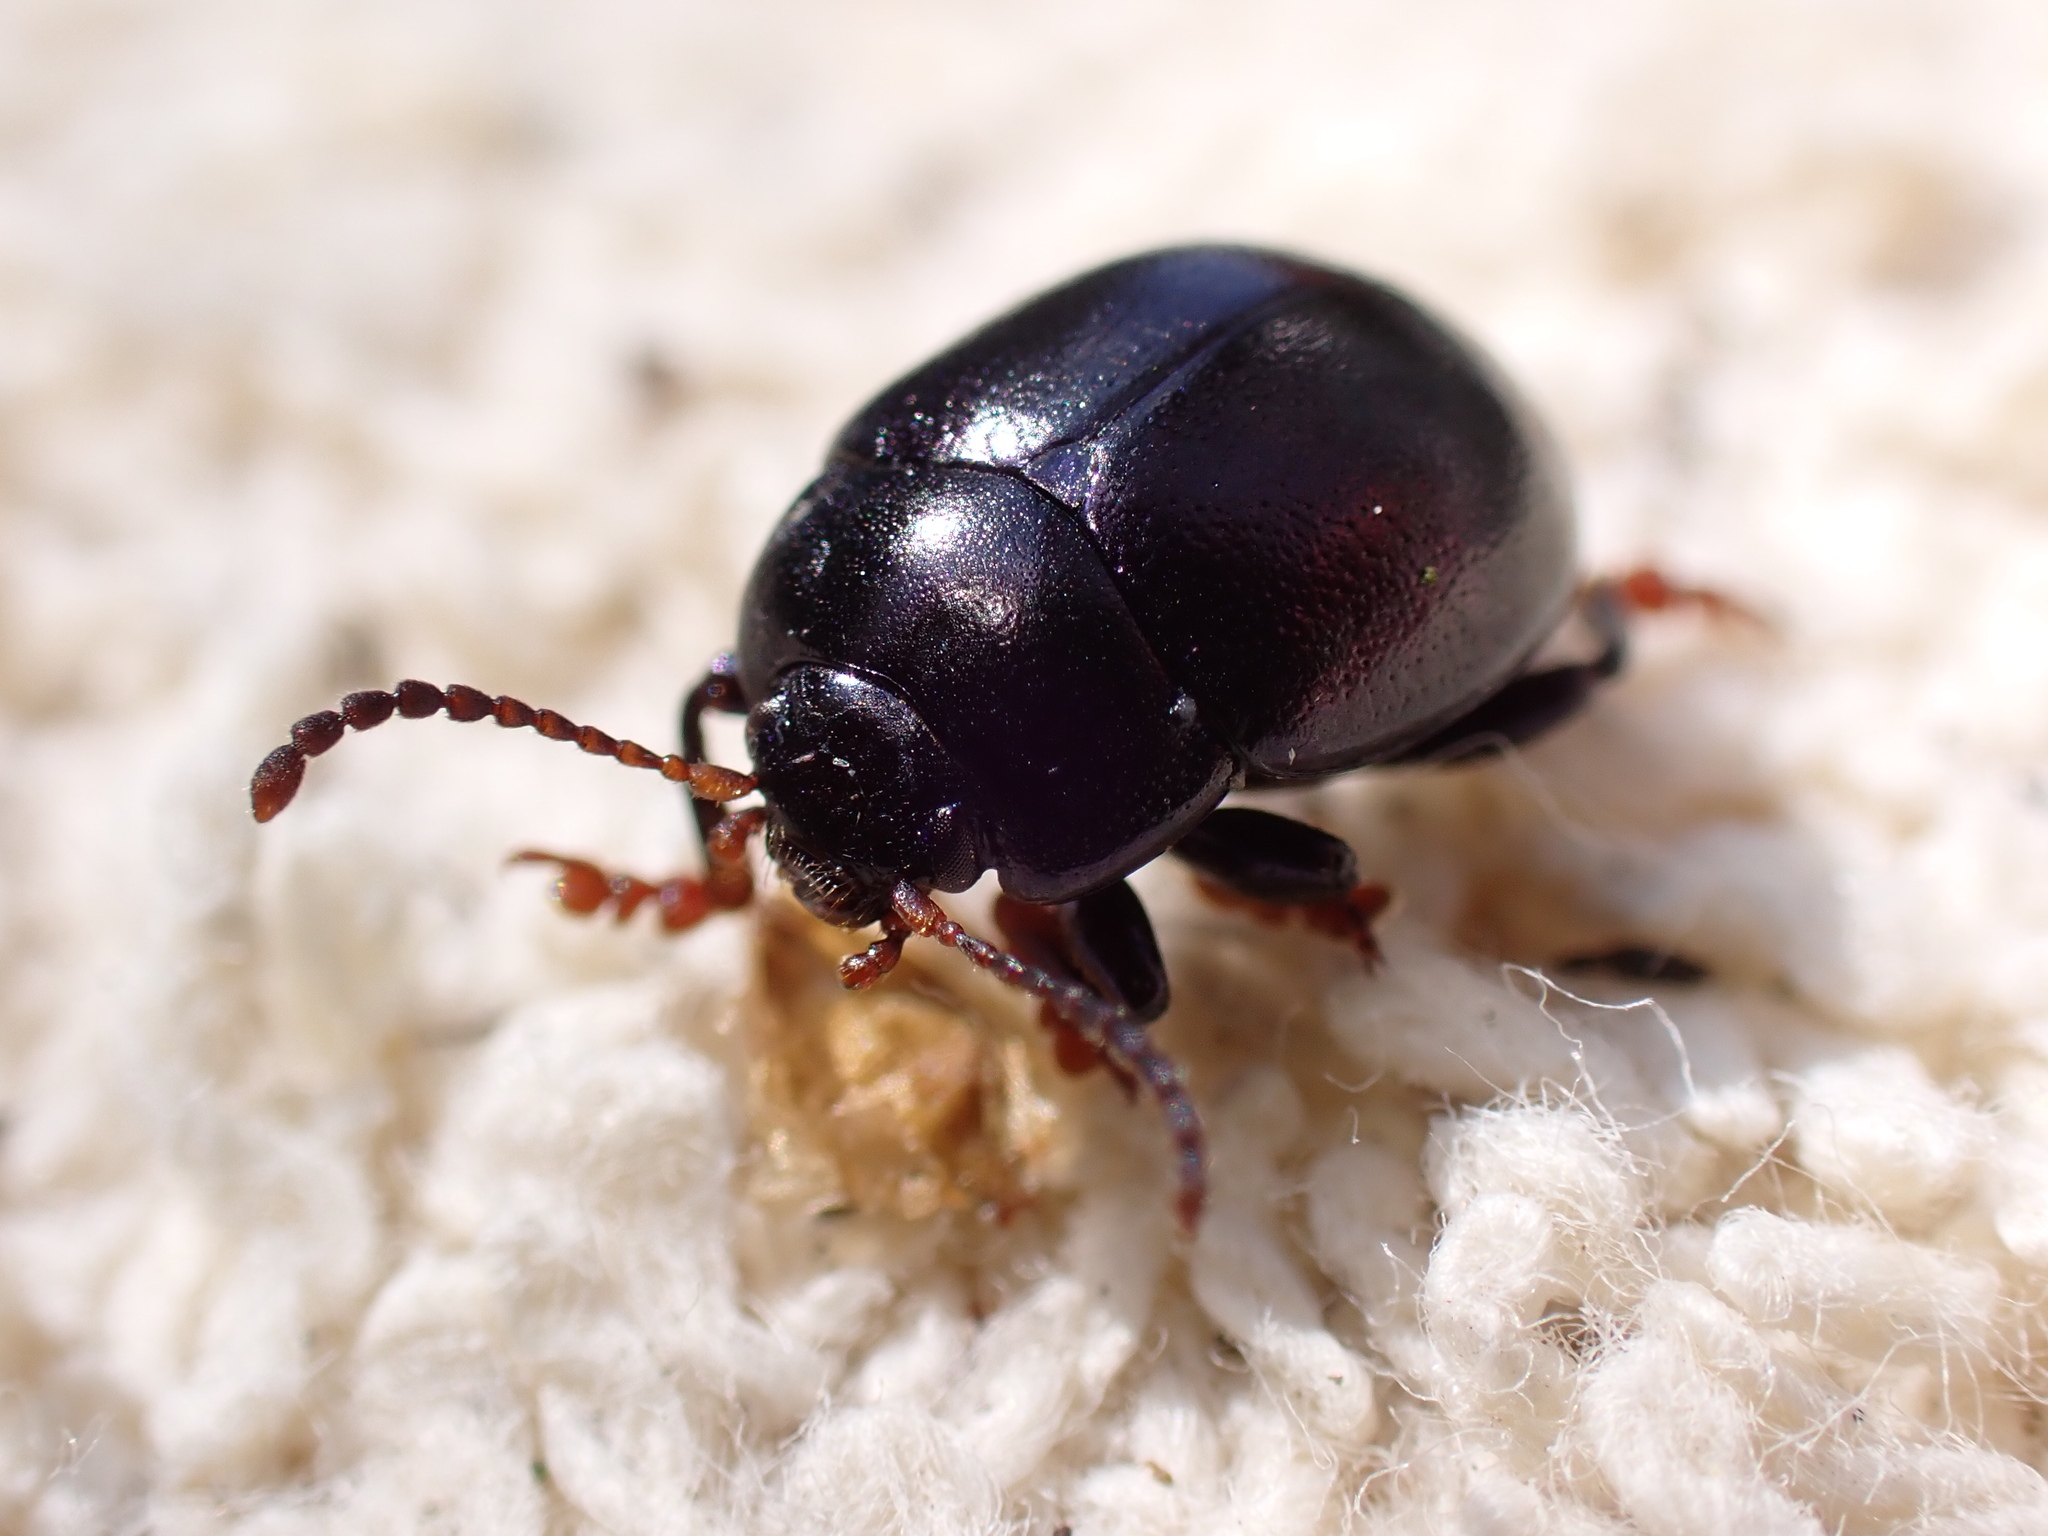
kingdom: Animalia
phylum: Arthropoda
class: Insecta
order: Coleoptera
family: Chrysomelidae
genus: Chrysolina
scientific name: Chrysolina sturmi
